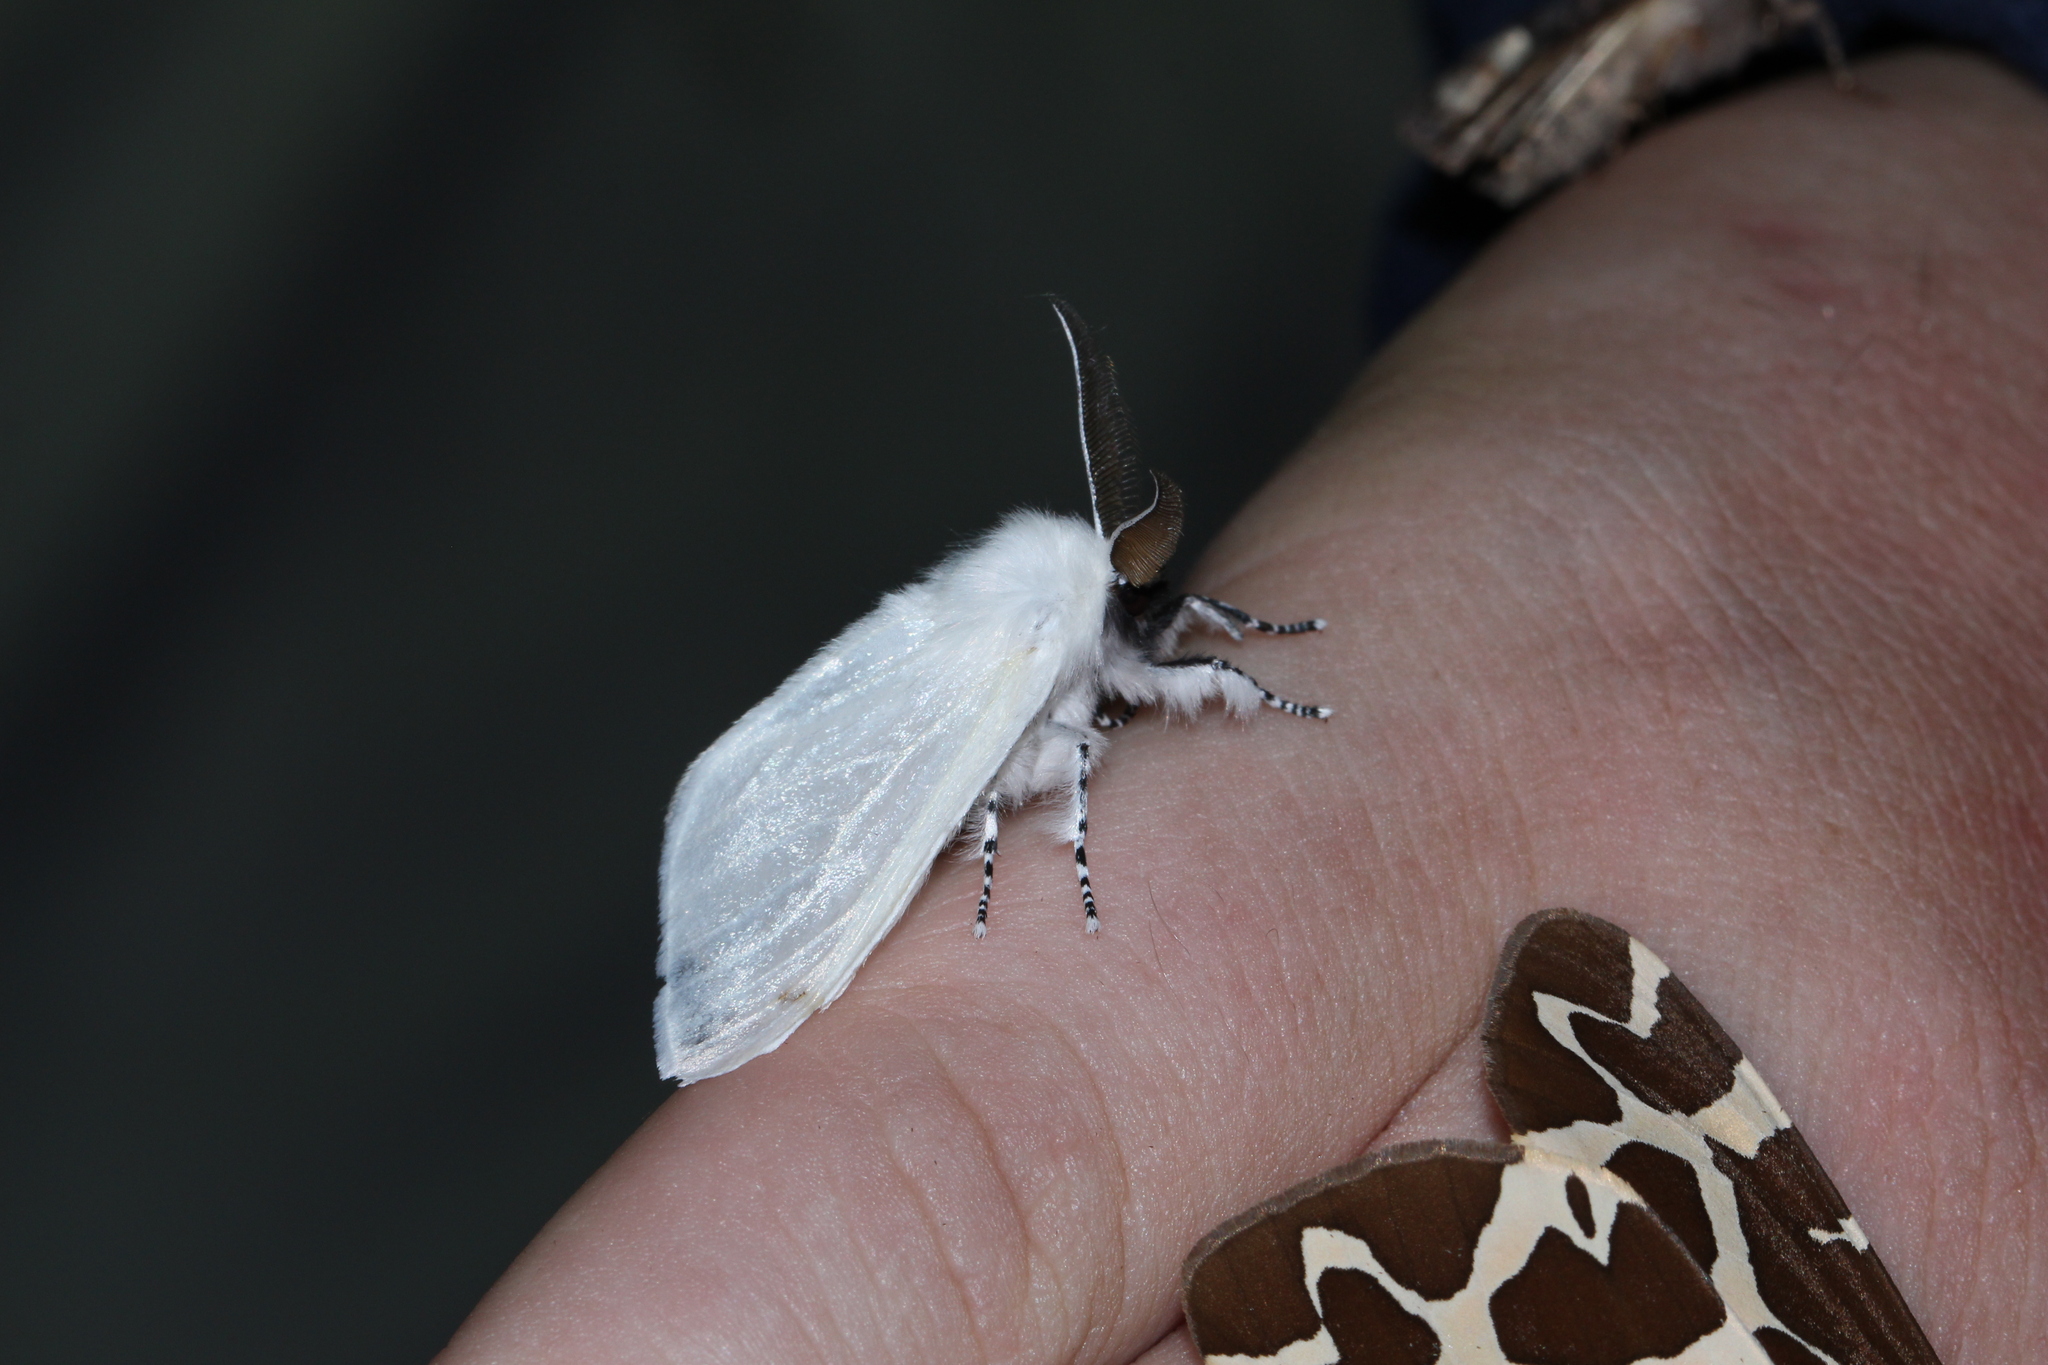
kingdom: Animalia
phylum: Arthropoda
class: Insecta
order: Lepidoptera
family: Erebidae
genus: Leucoma
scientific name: Leucoma salicis
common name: White satin moth
